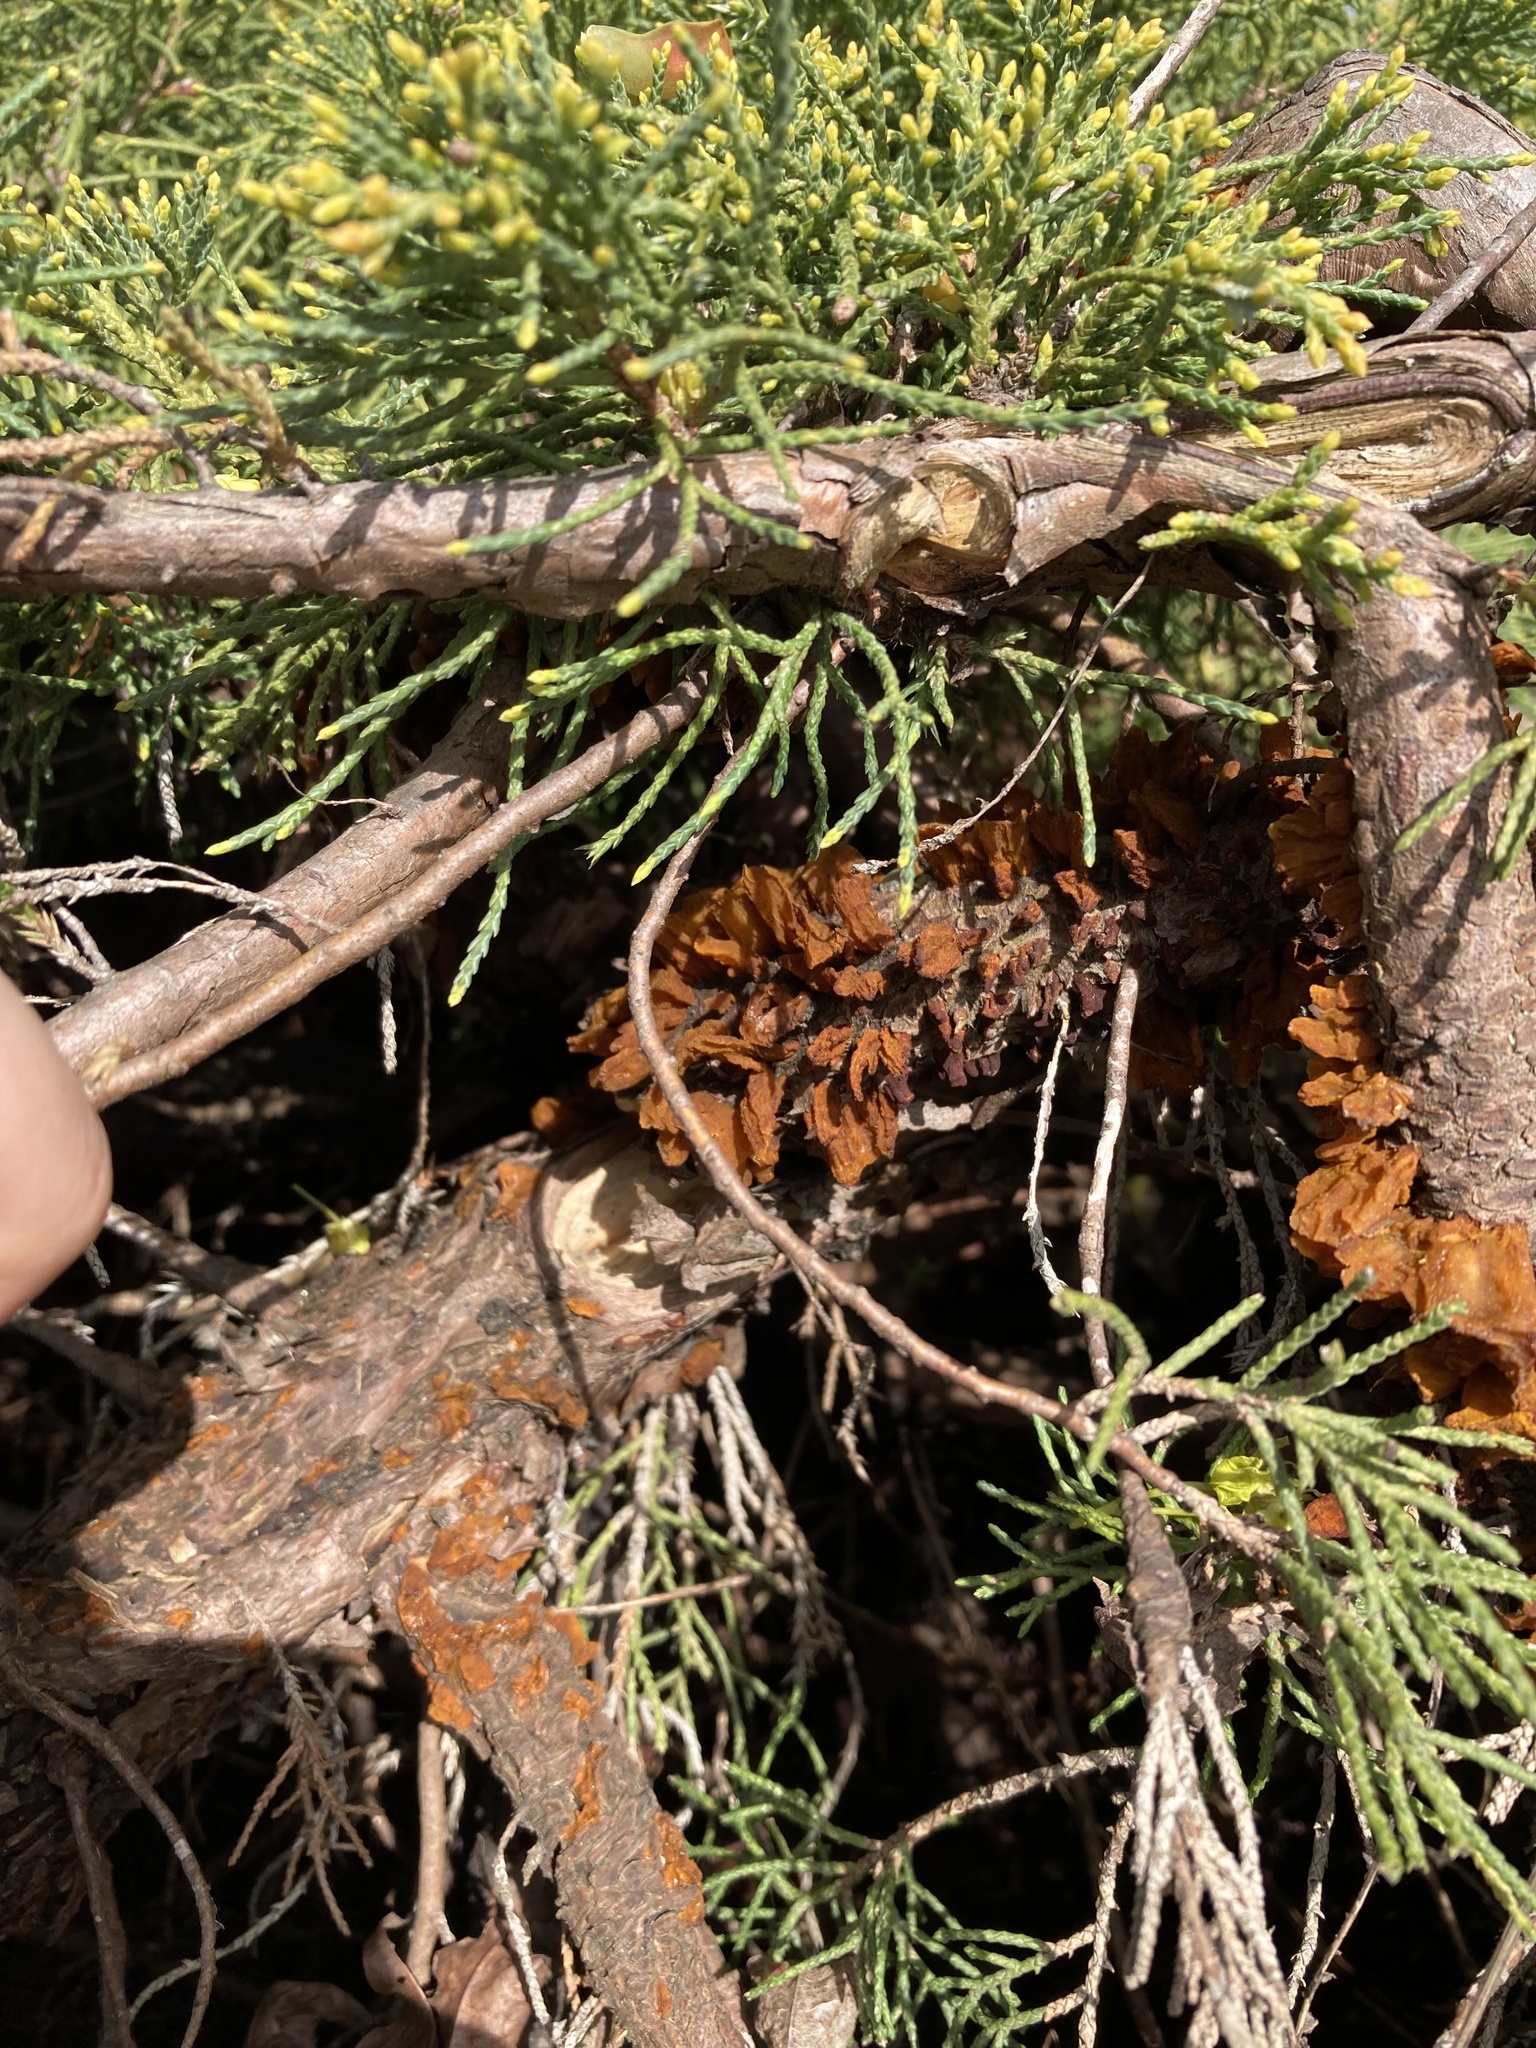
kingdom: Fungi
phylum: Basidiomycota
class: Pucciniomycetes
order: Pucciniales
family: Gymnosporangiaceae
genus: Gymnosporangium
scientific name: Gymnosporangium juniperi-virginianae
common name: Juniper-apple rust
